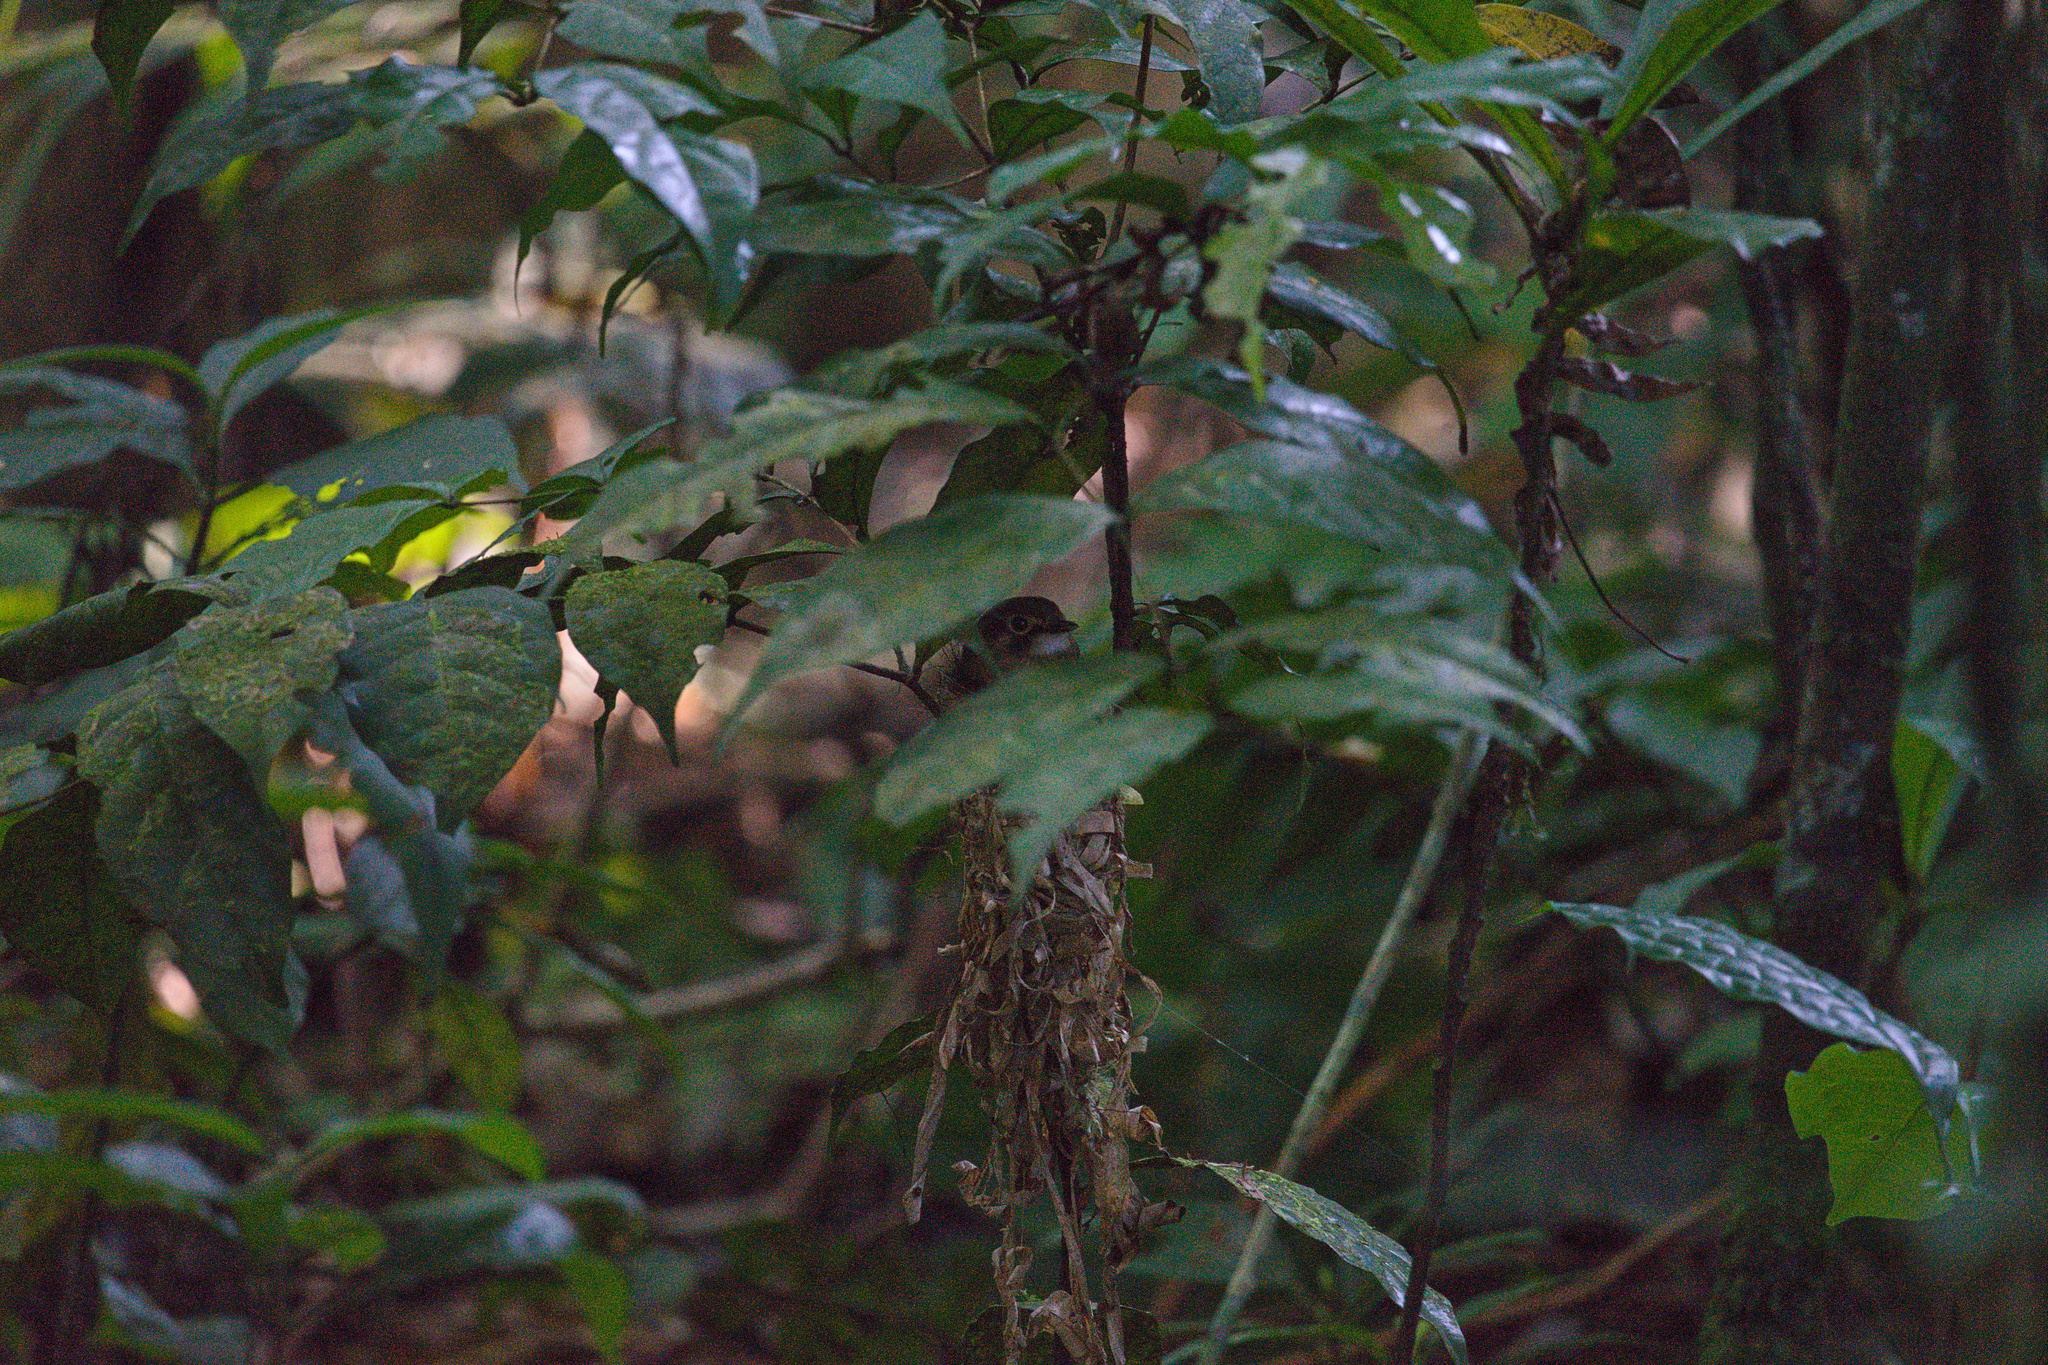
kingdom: Animalia
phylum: Chordata
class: Aves
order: Passeriformes
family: Tyrannidae
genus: Platyrinchus
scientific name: Platyrinchus mystaceus
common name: White-throated spadebill
